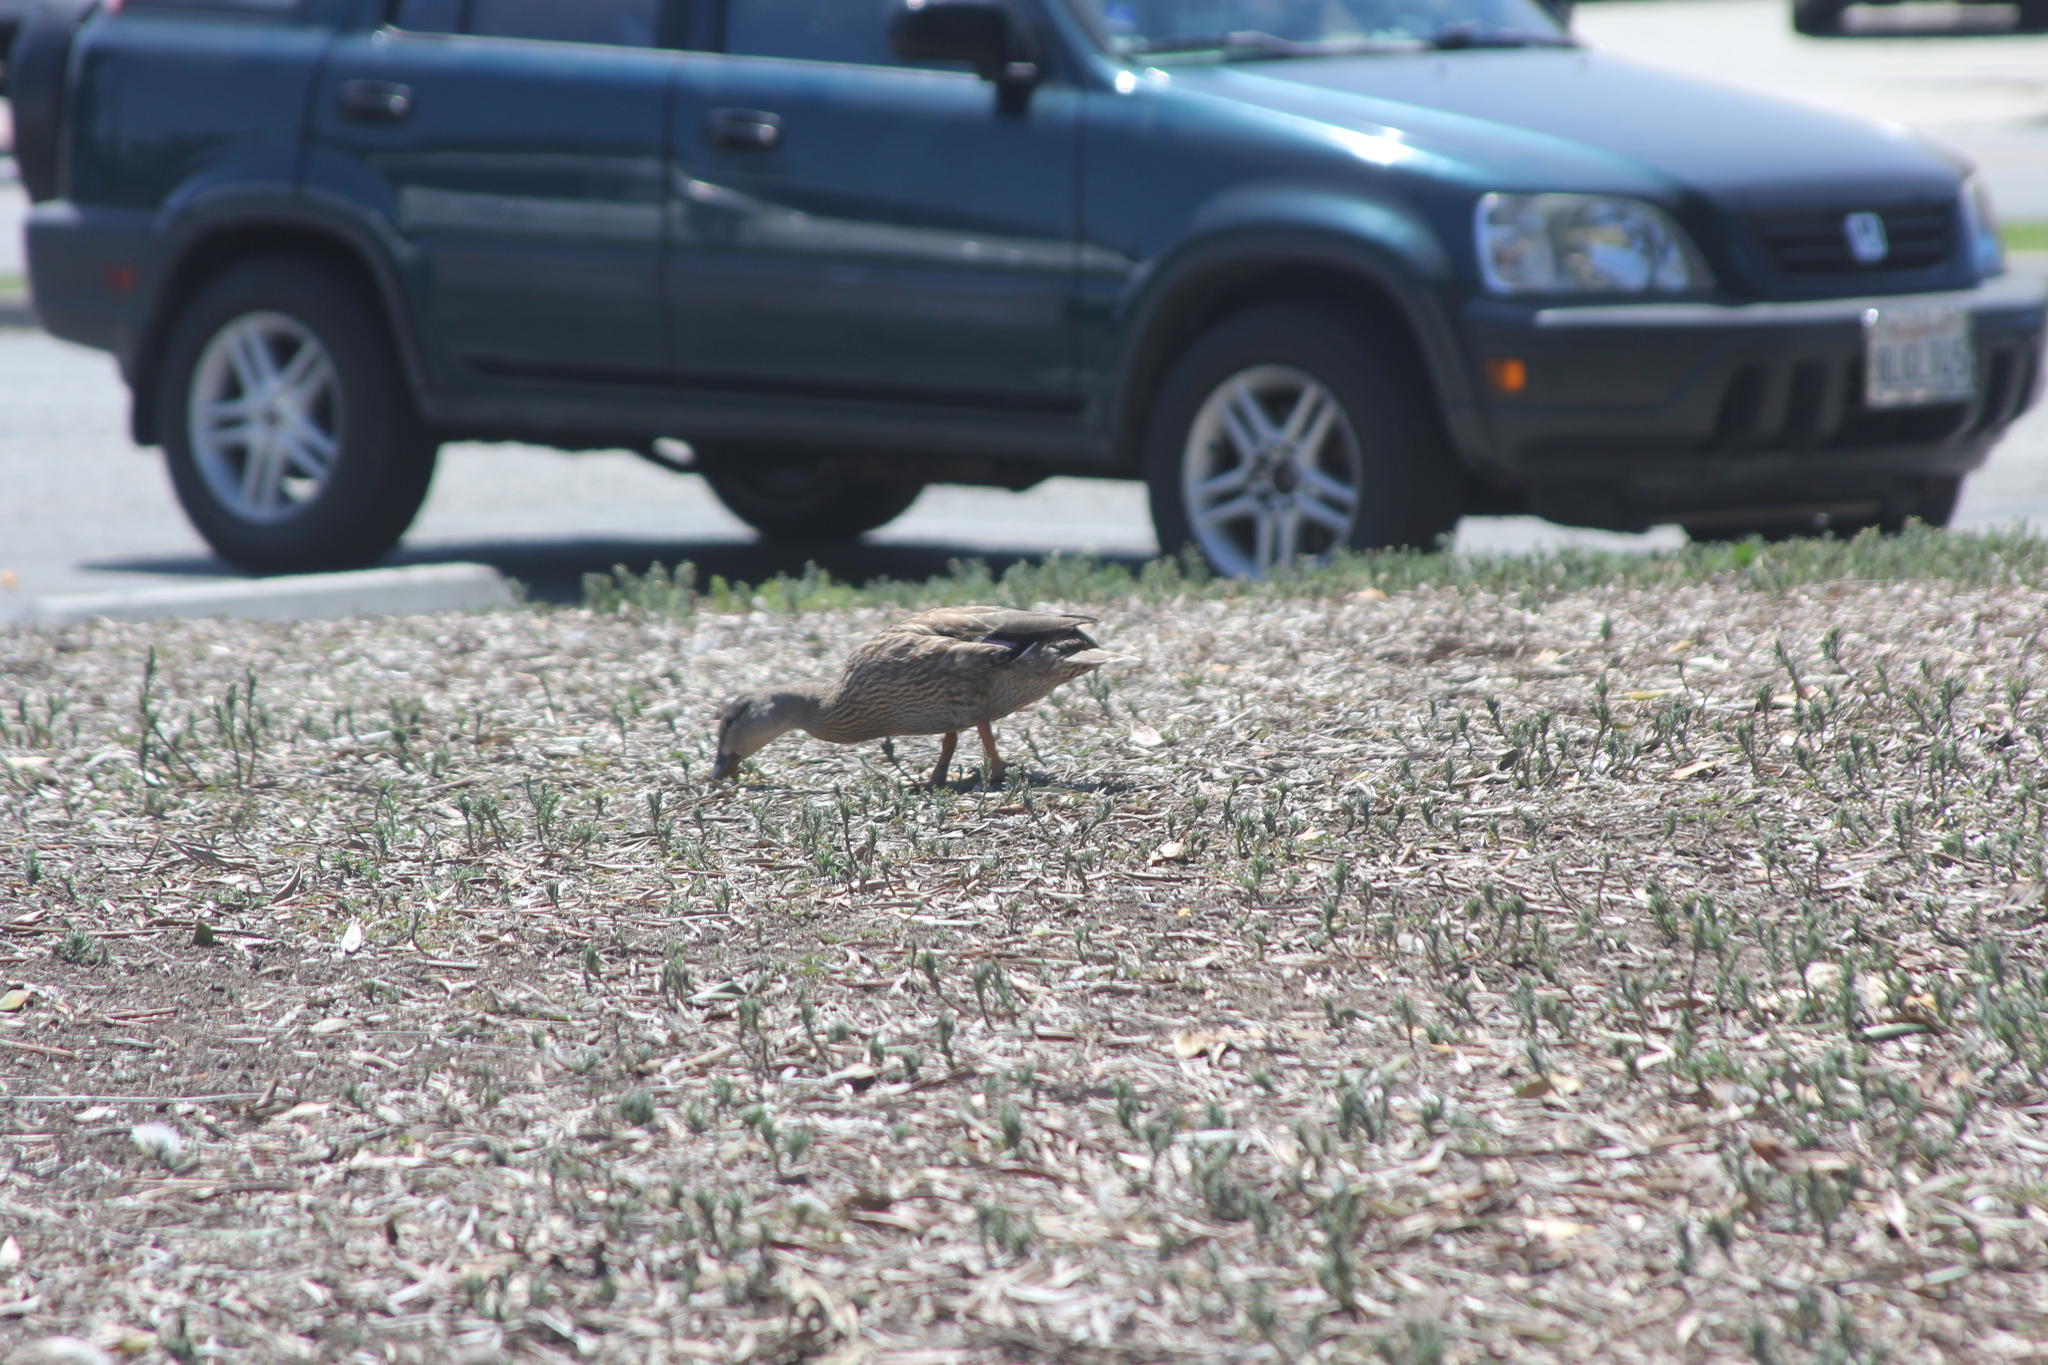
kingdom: Animalia
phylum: Chordata
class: Aves
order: Anseriformes
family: Anatidae
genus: Anas
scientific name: Anas platyrhynchos
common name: Mallard
